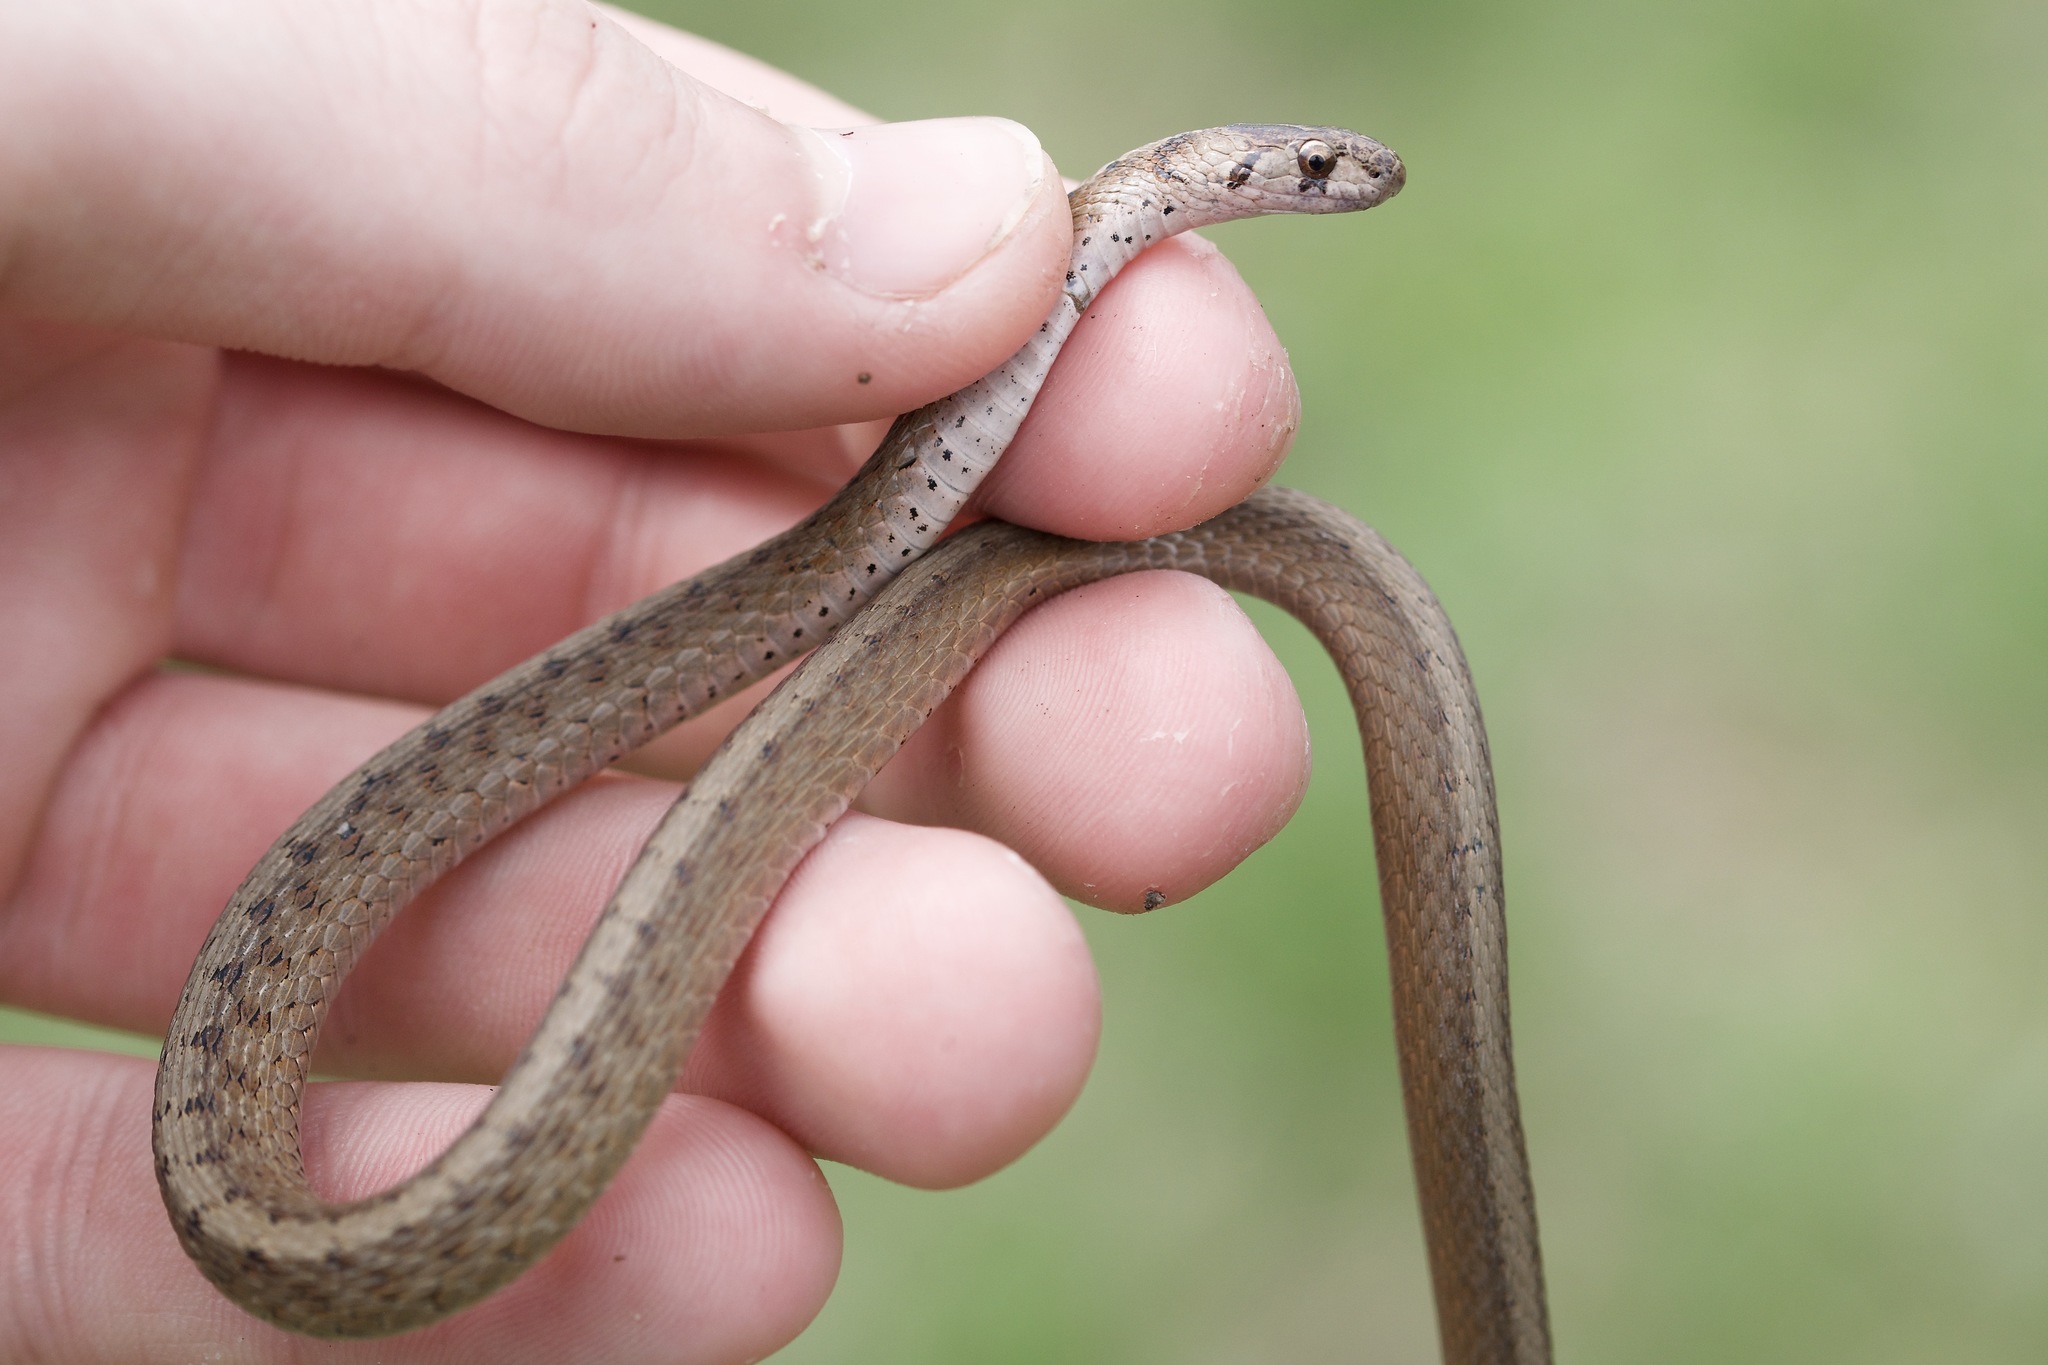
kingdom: Animalia
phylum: Chordata
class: Squamata
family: Colubridae
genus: Storeria
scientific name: Storeria dekayi
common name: (dekay’s) brown snake
